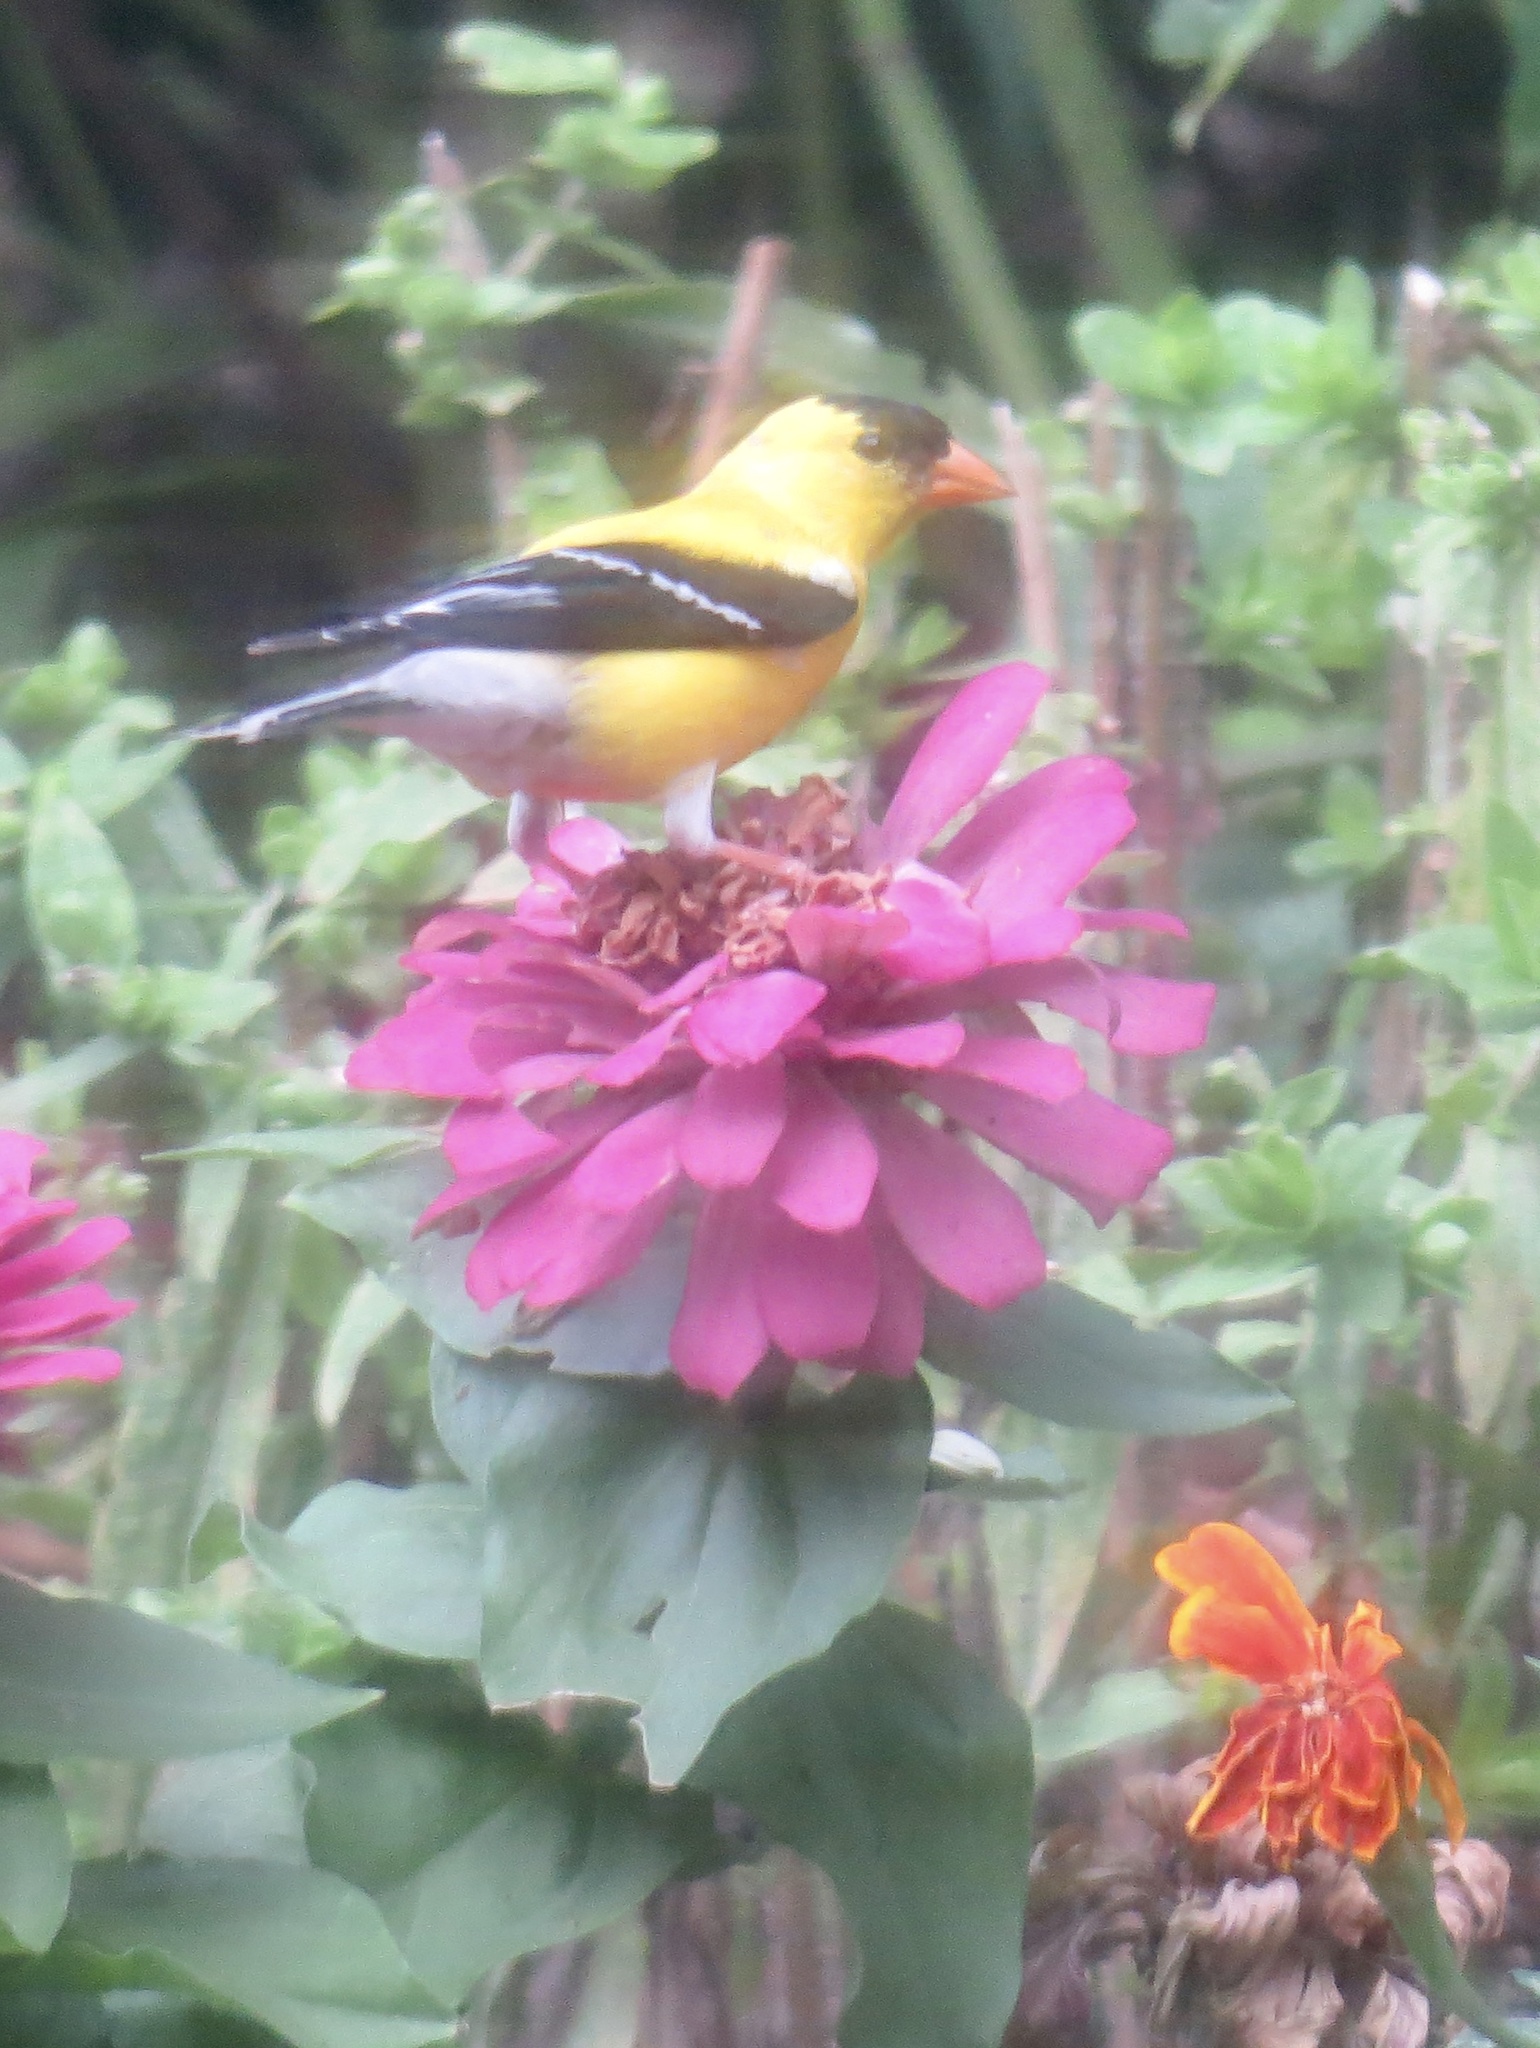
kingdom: Animalia
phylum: Chordata
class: Aves
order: Passeriformes
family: Fringillidae
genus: Spinus
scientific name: Spinus tristis
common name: American goldfinch
